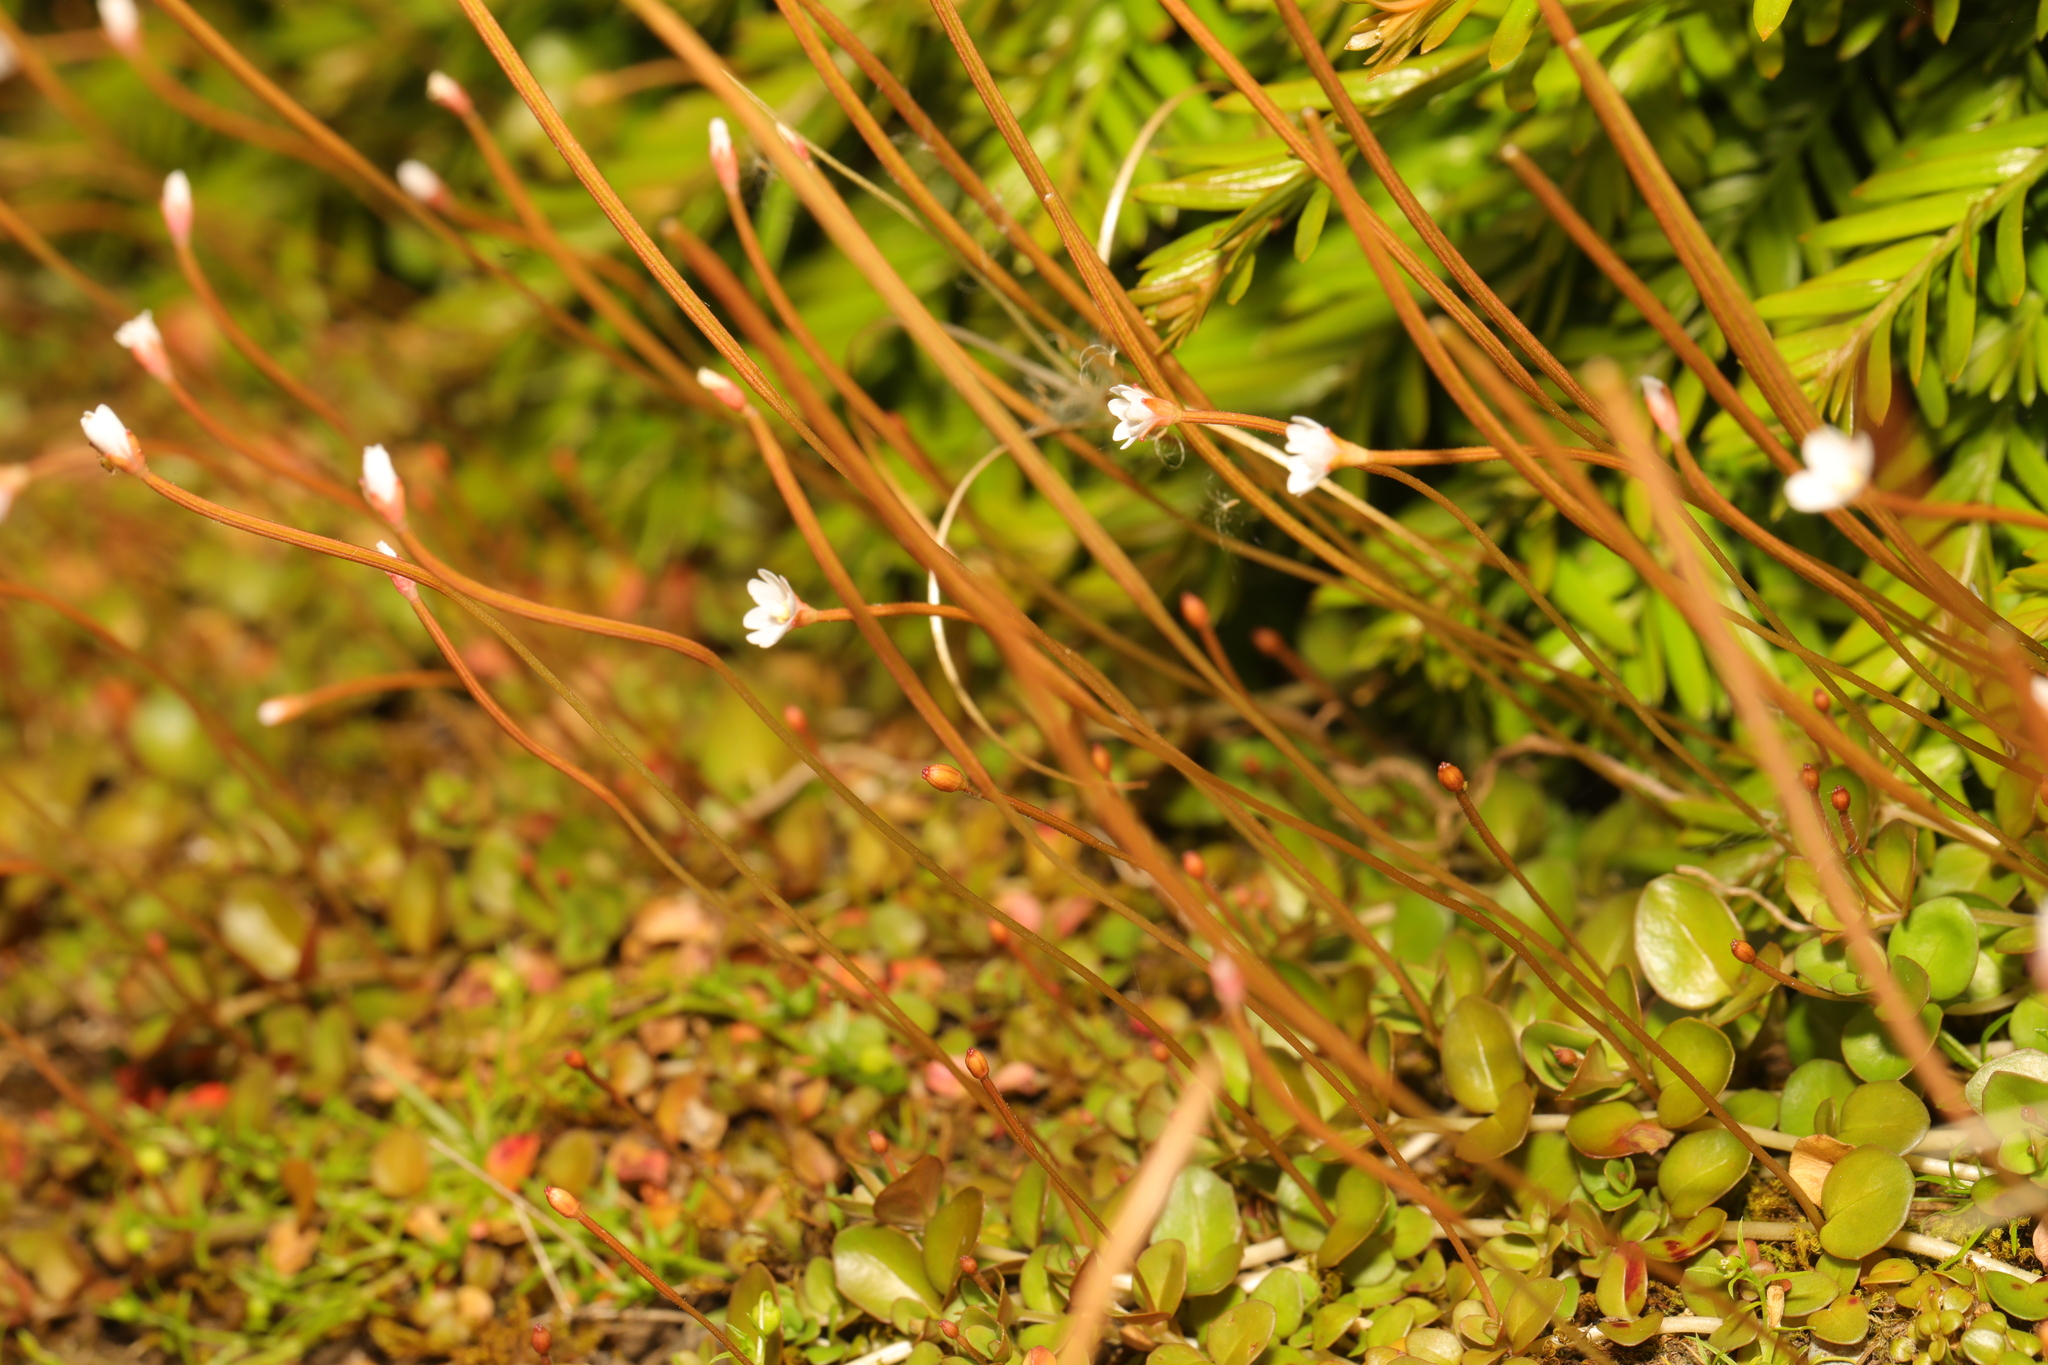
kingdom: Plantae
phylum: Tracheophyta
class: Magnoliopsida
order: Myrtales
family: Onagraceae
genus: Epilobium
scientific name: Epilobium brunnescens
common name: New zealand willowherb
